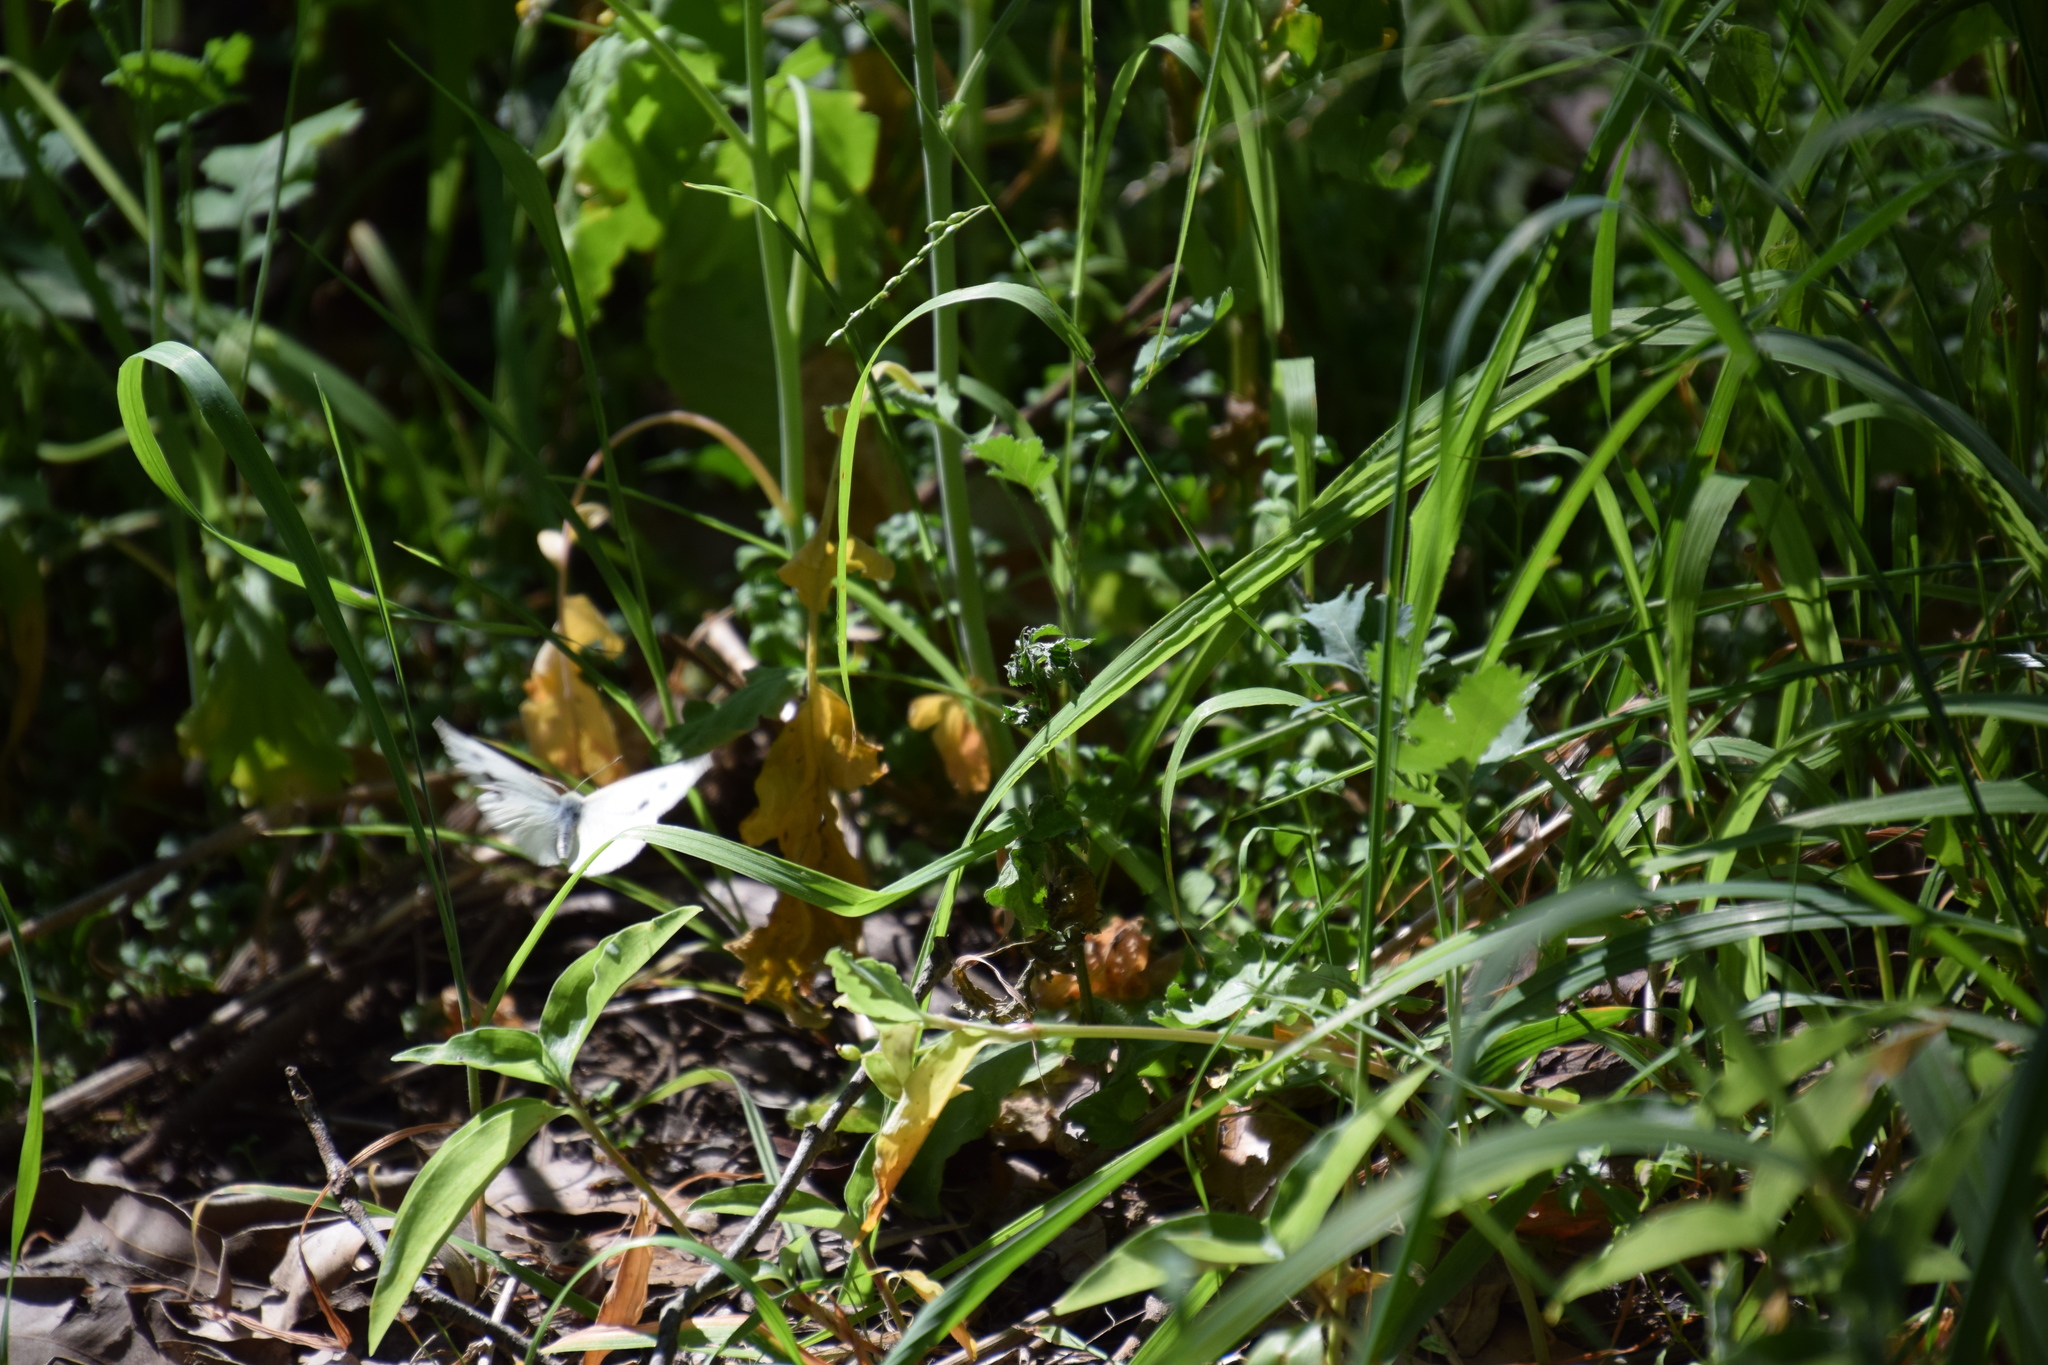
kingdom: Animalia
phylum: Arthropoda
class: Insecta
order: Lepidoptera
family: Pieridae
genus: Pieris
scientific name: Pieris rapae
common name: Small white
